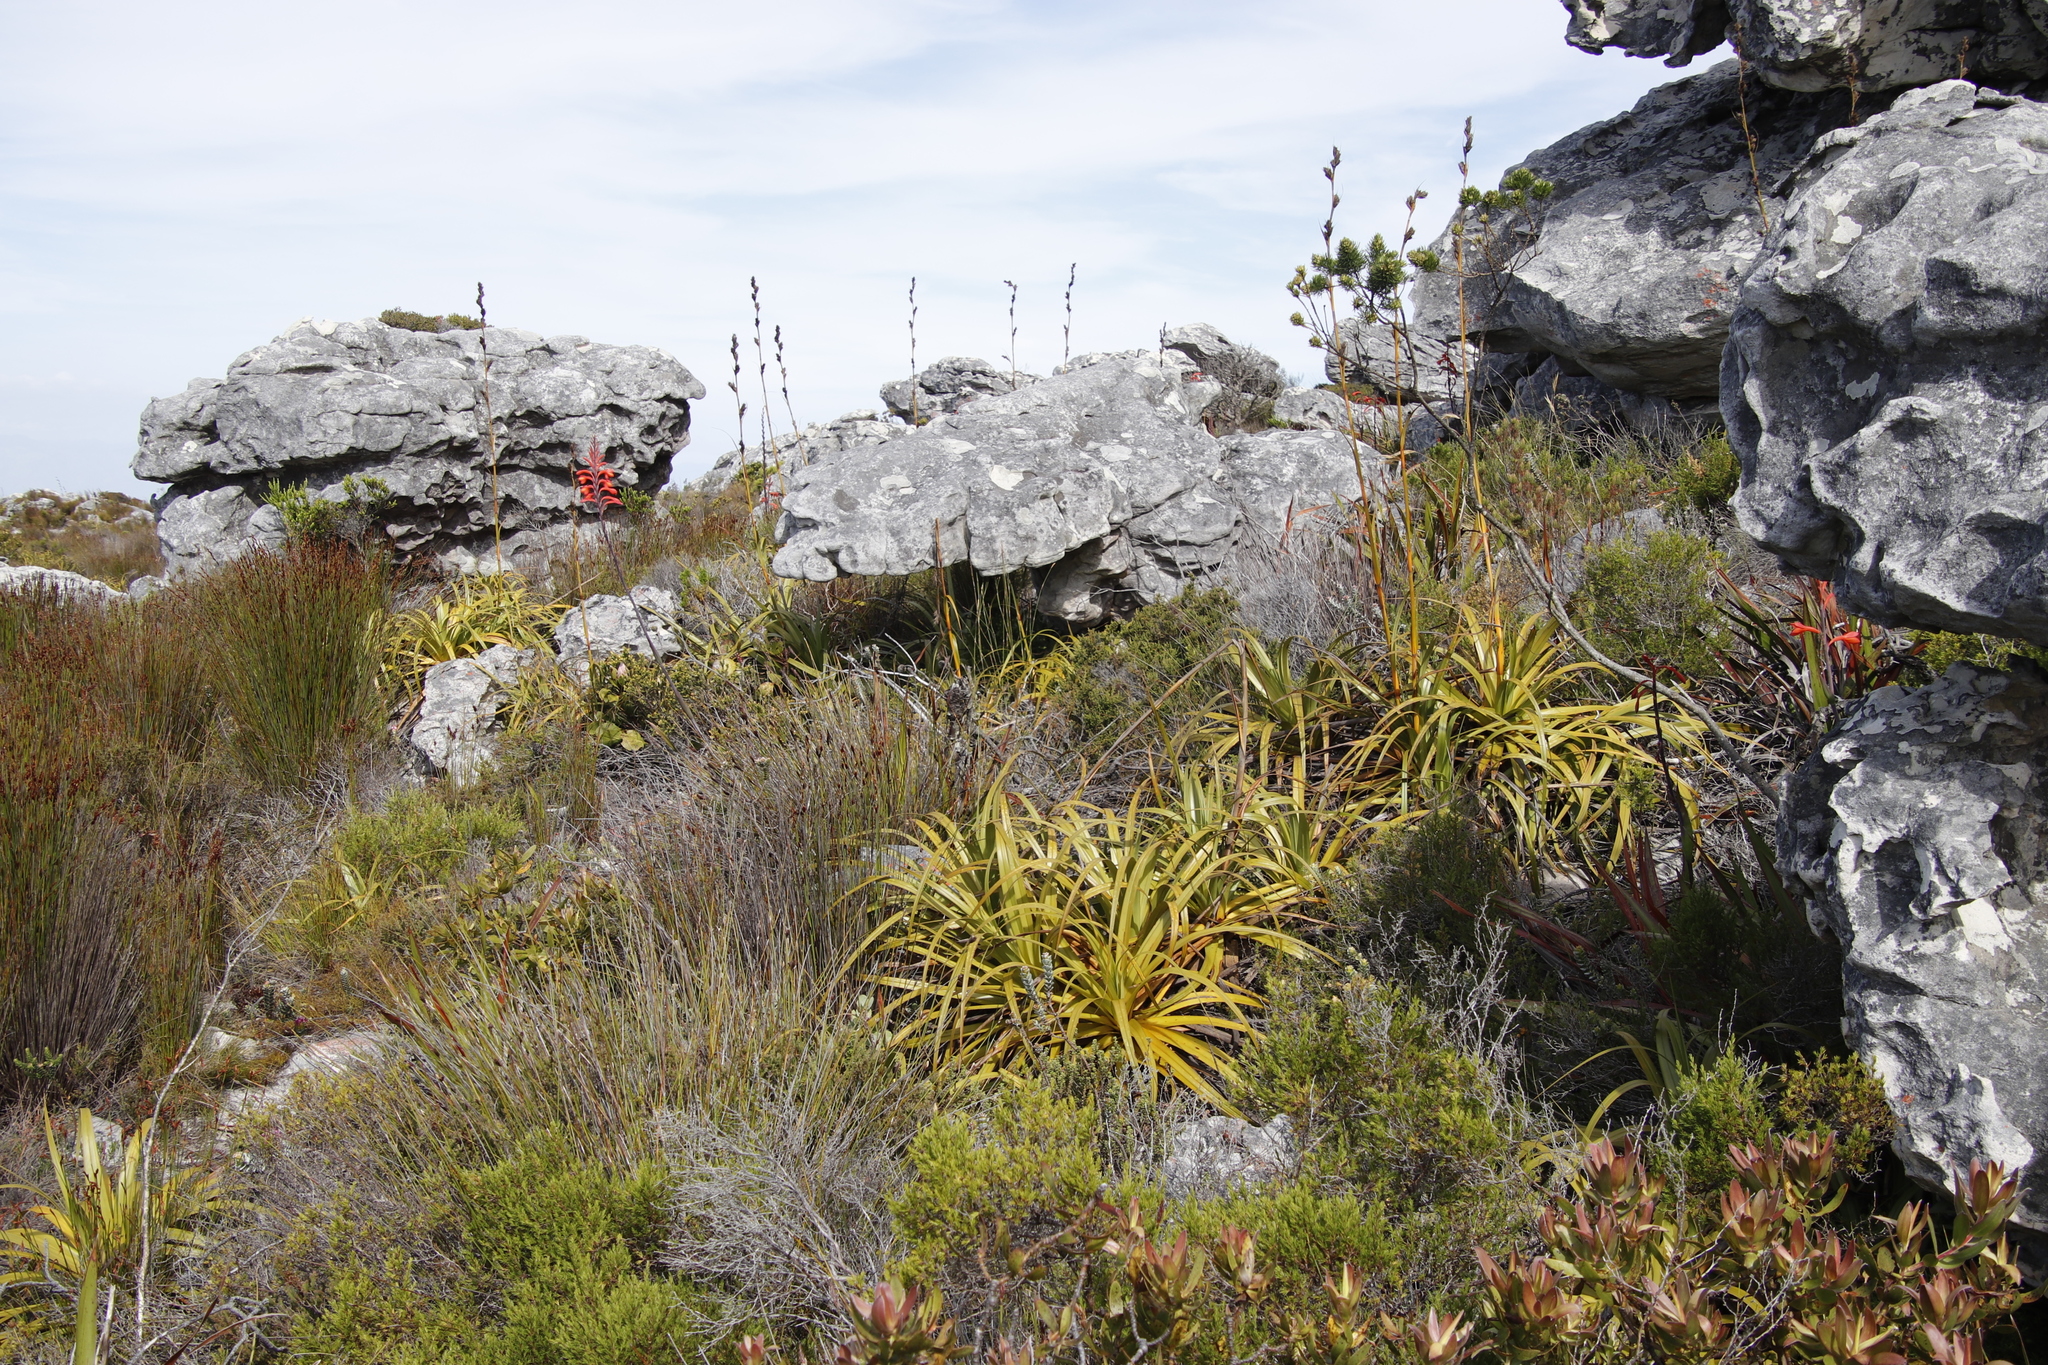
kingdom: Plantae
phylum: Tracheophyta
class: Liliopsida
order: Poales
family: Cyperaceae
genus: Tetraria
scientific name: Tetraria thermalis
